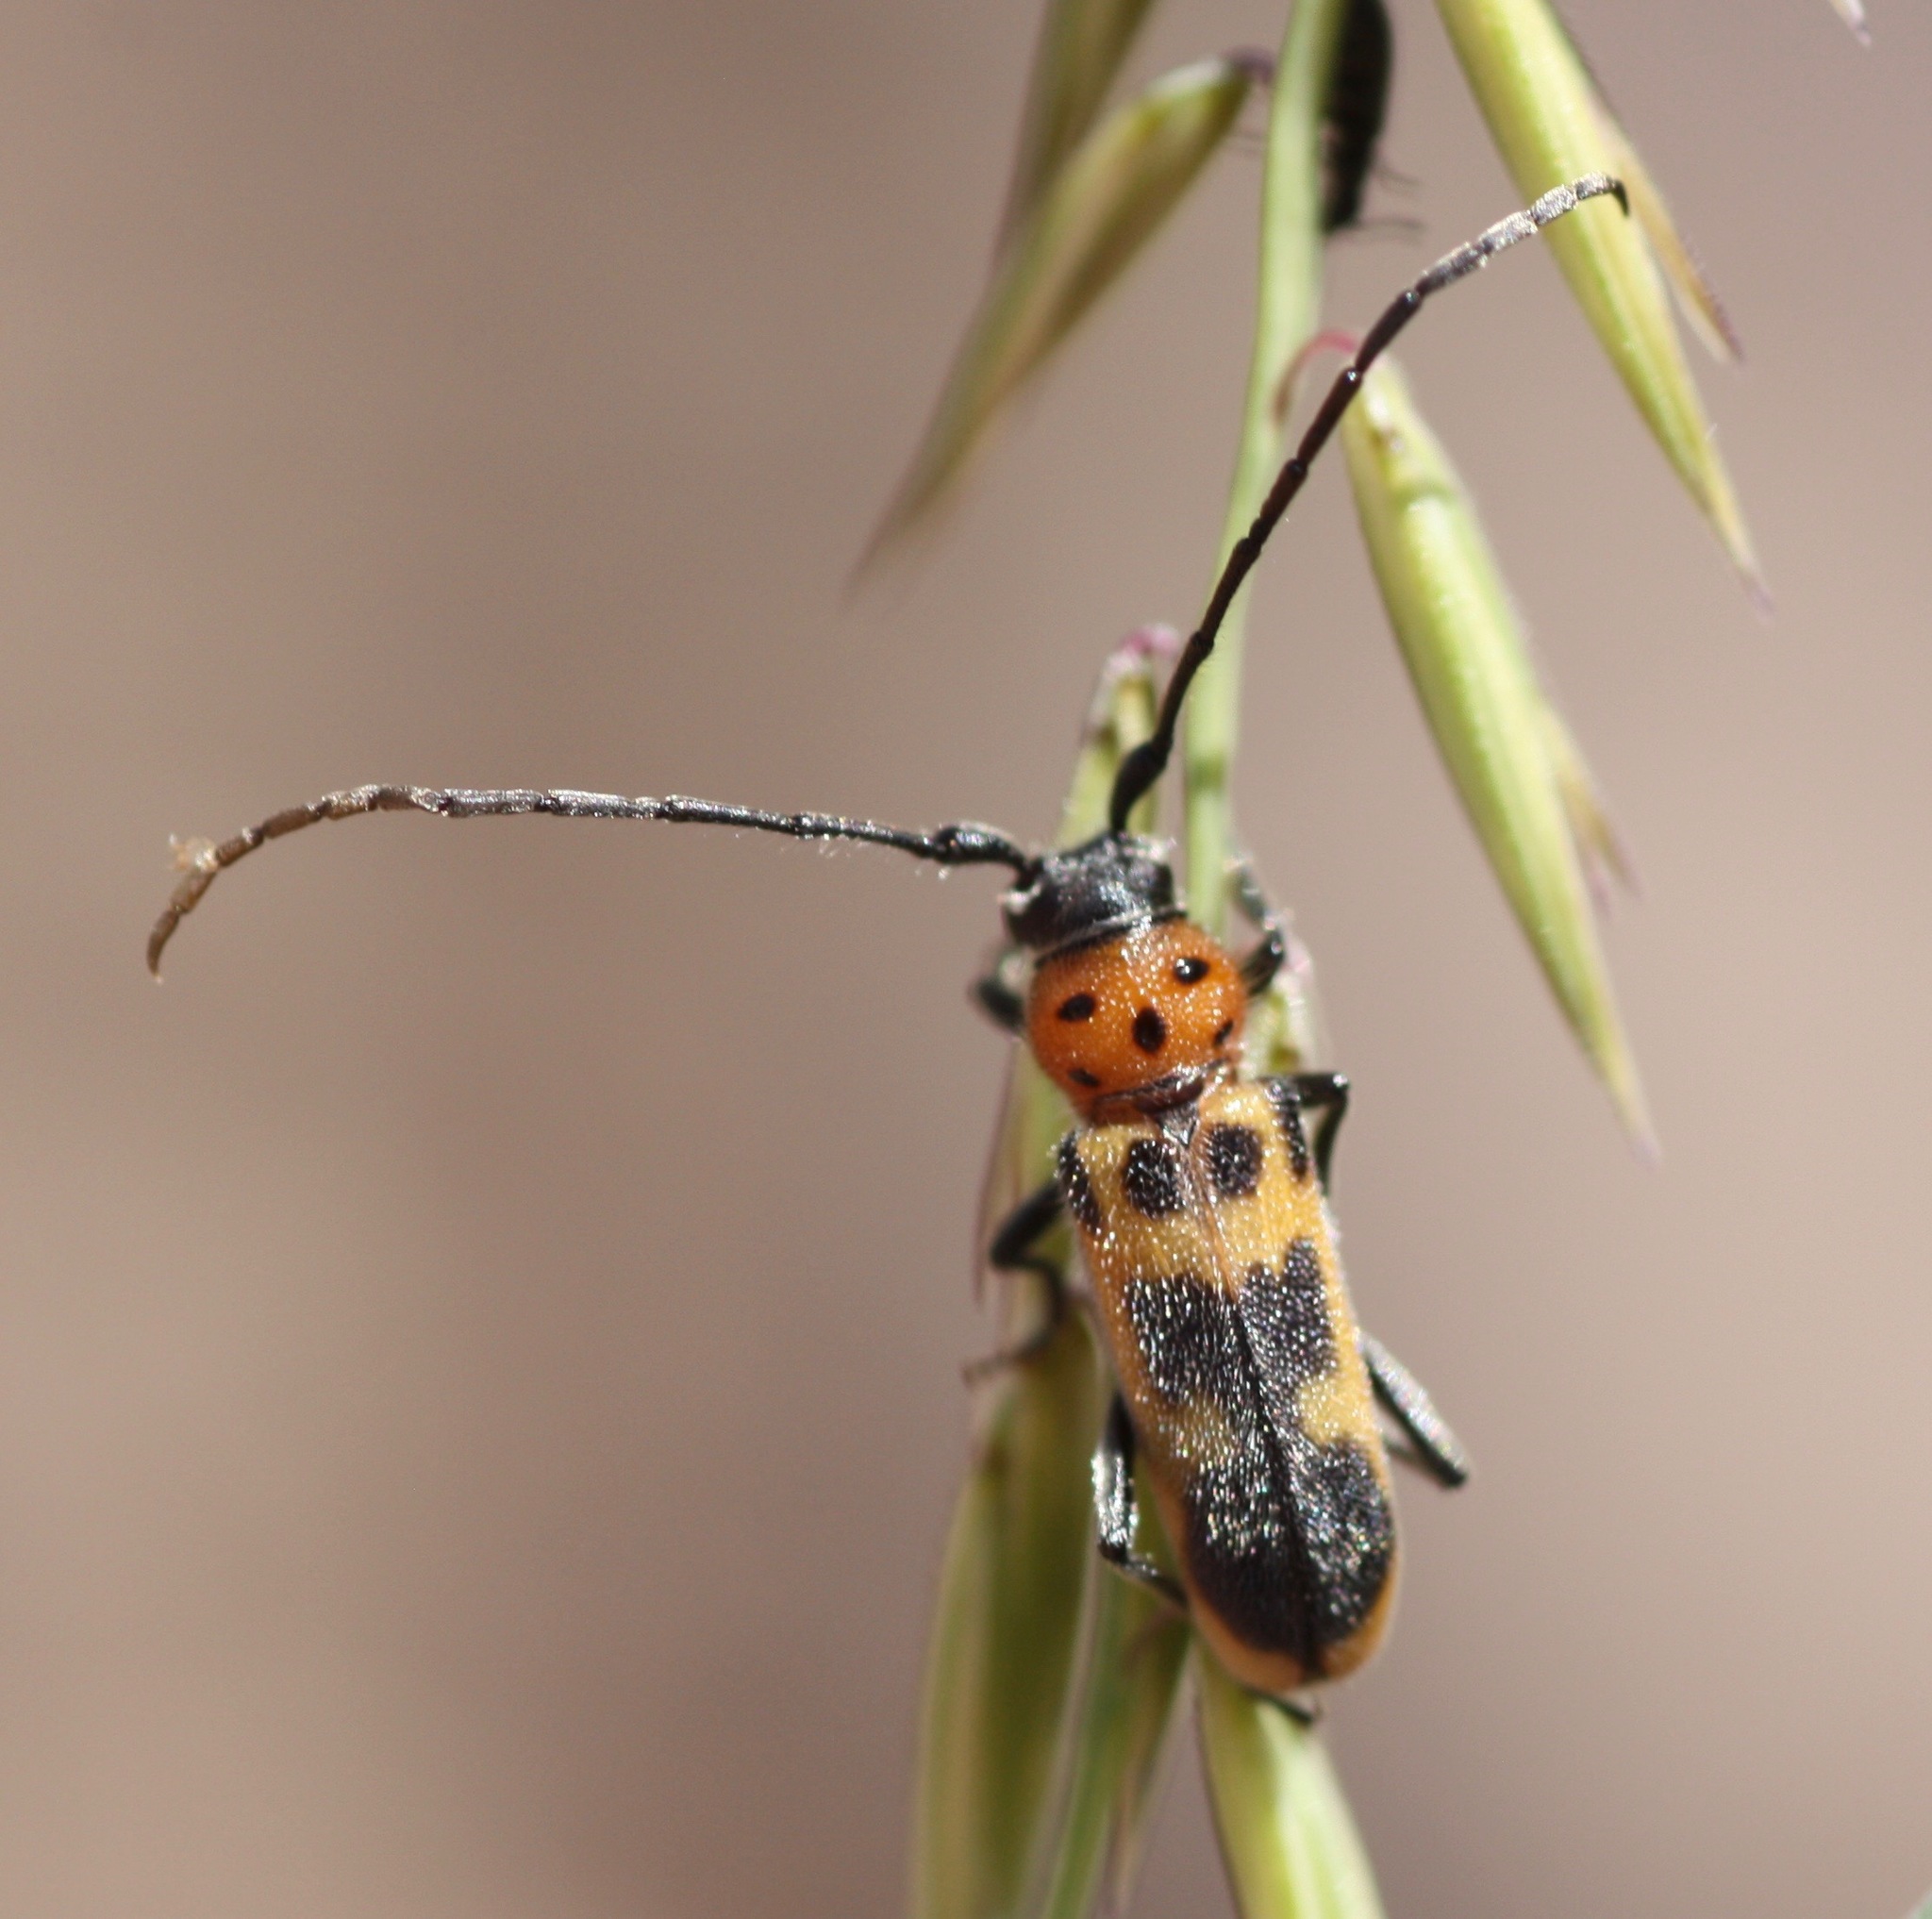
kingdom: Animalia
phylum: Arthropoda
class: Insecta
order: Coleoptera
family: Cerambycidae
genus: Tylosis
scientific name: Tylosis maculatus
